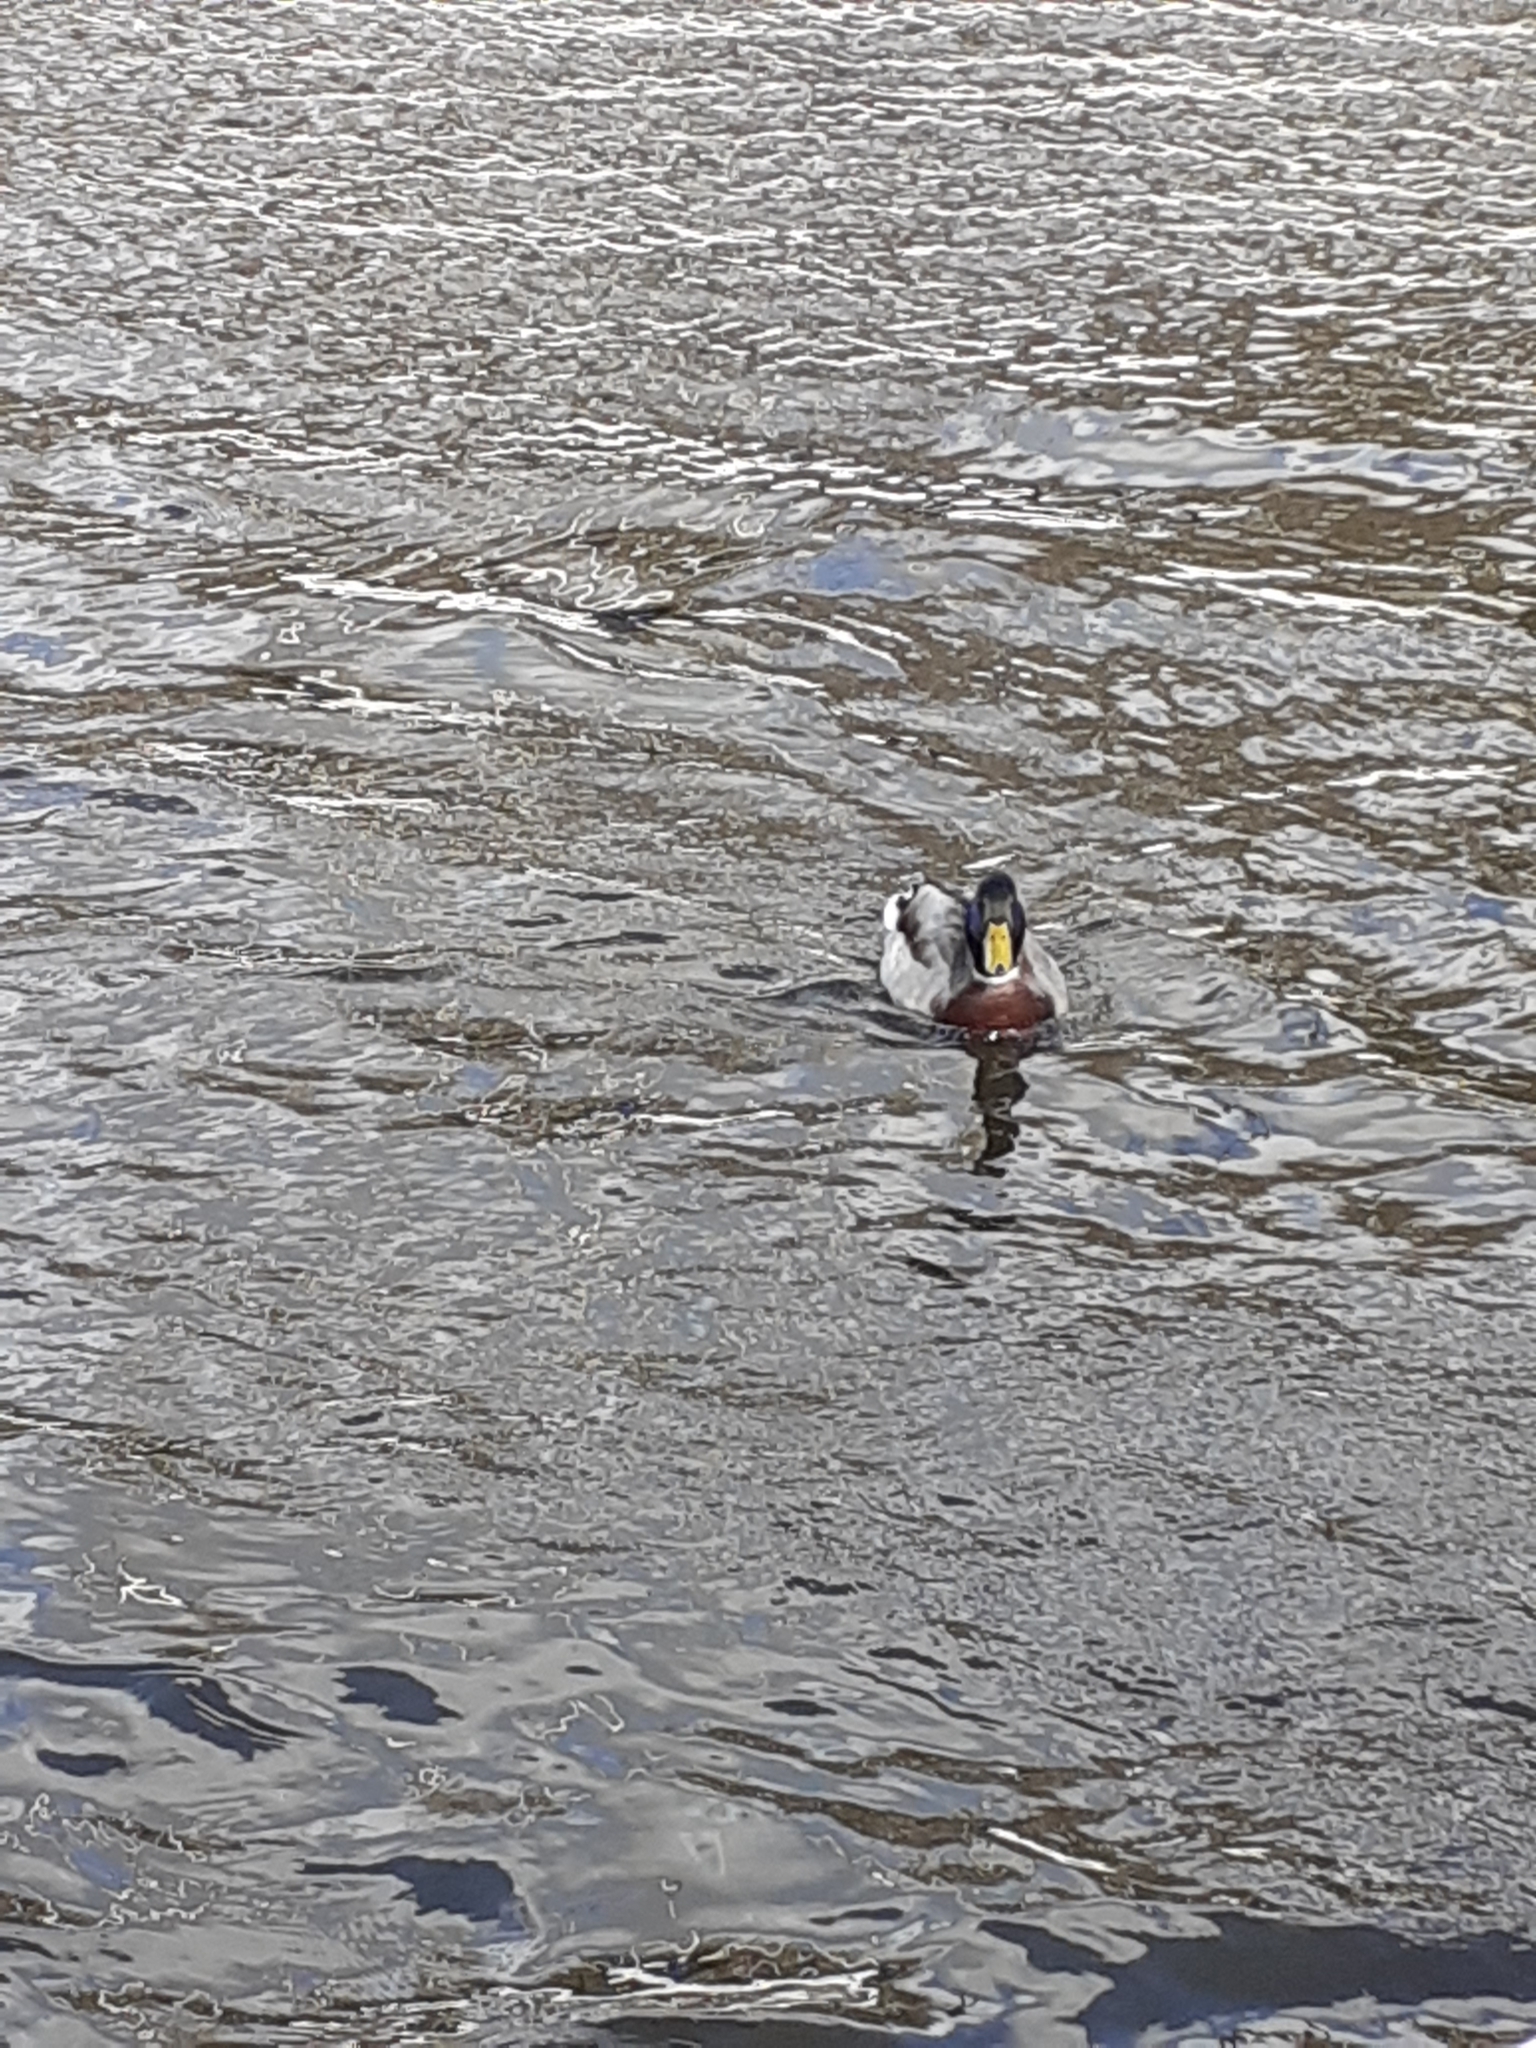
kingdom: Animalia
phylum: Chordata
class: Aves
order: Anseriformes
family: Anatidae
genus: Anas
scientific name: Anas platyrhynchos
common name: Mallard
